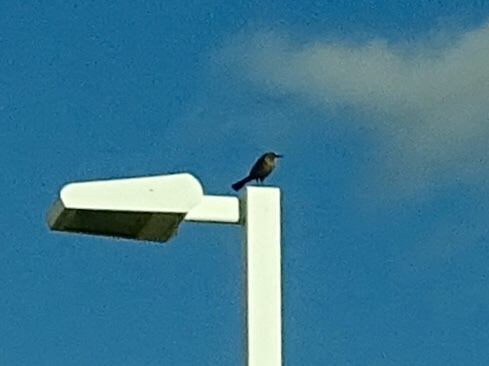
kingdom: Animalia
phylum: Chordata
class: Aves
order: Passeriformes
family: Icteridae
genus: Quiscalus
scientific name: Quiscalus mexicanus
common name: Great-tailed grackle
